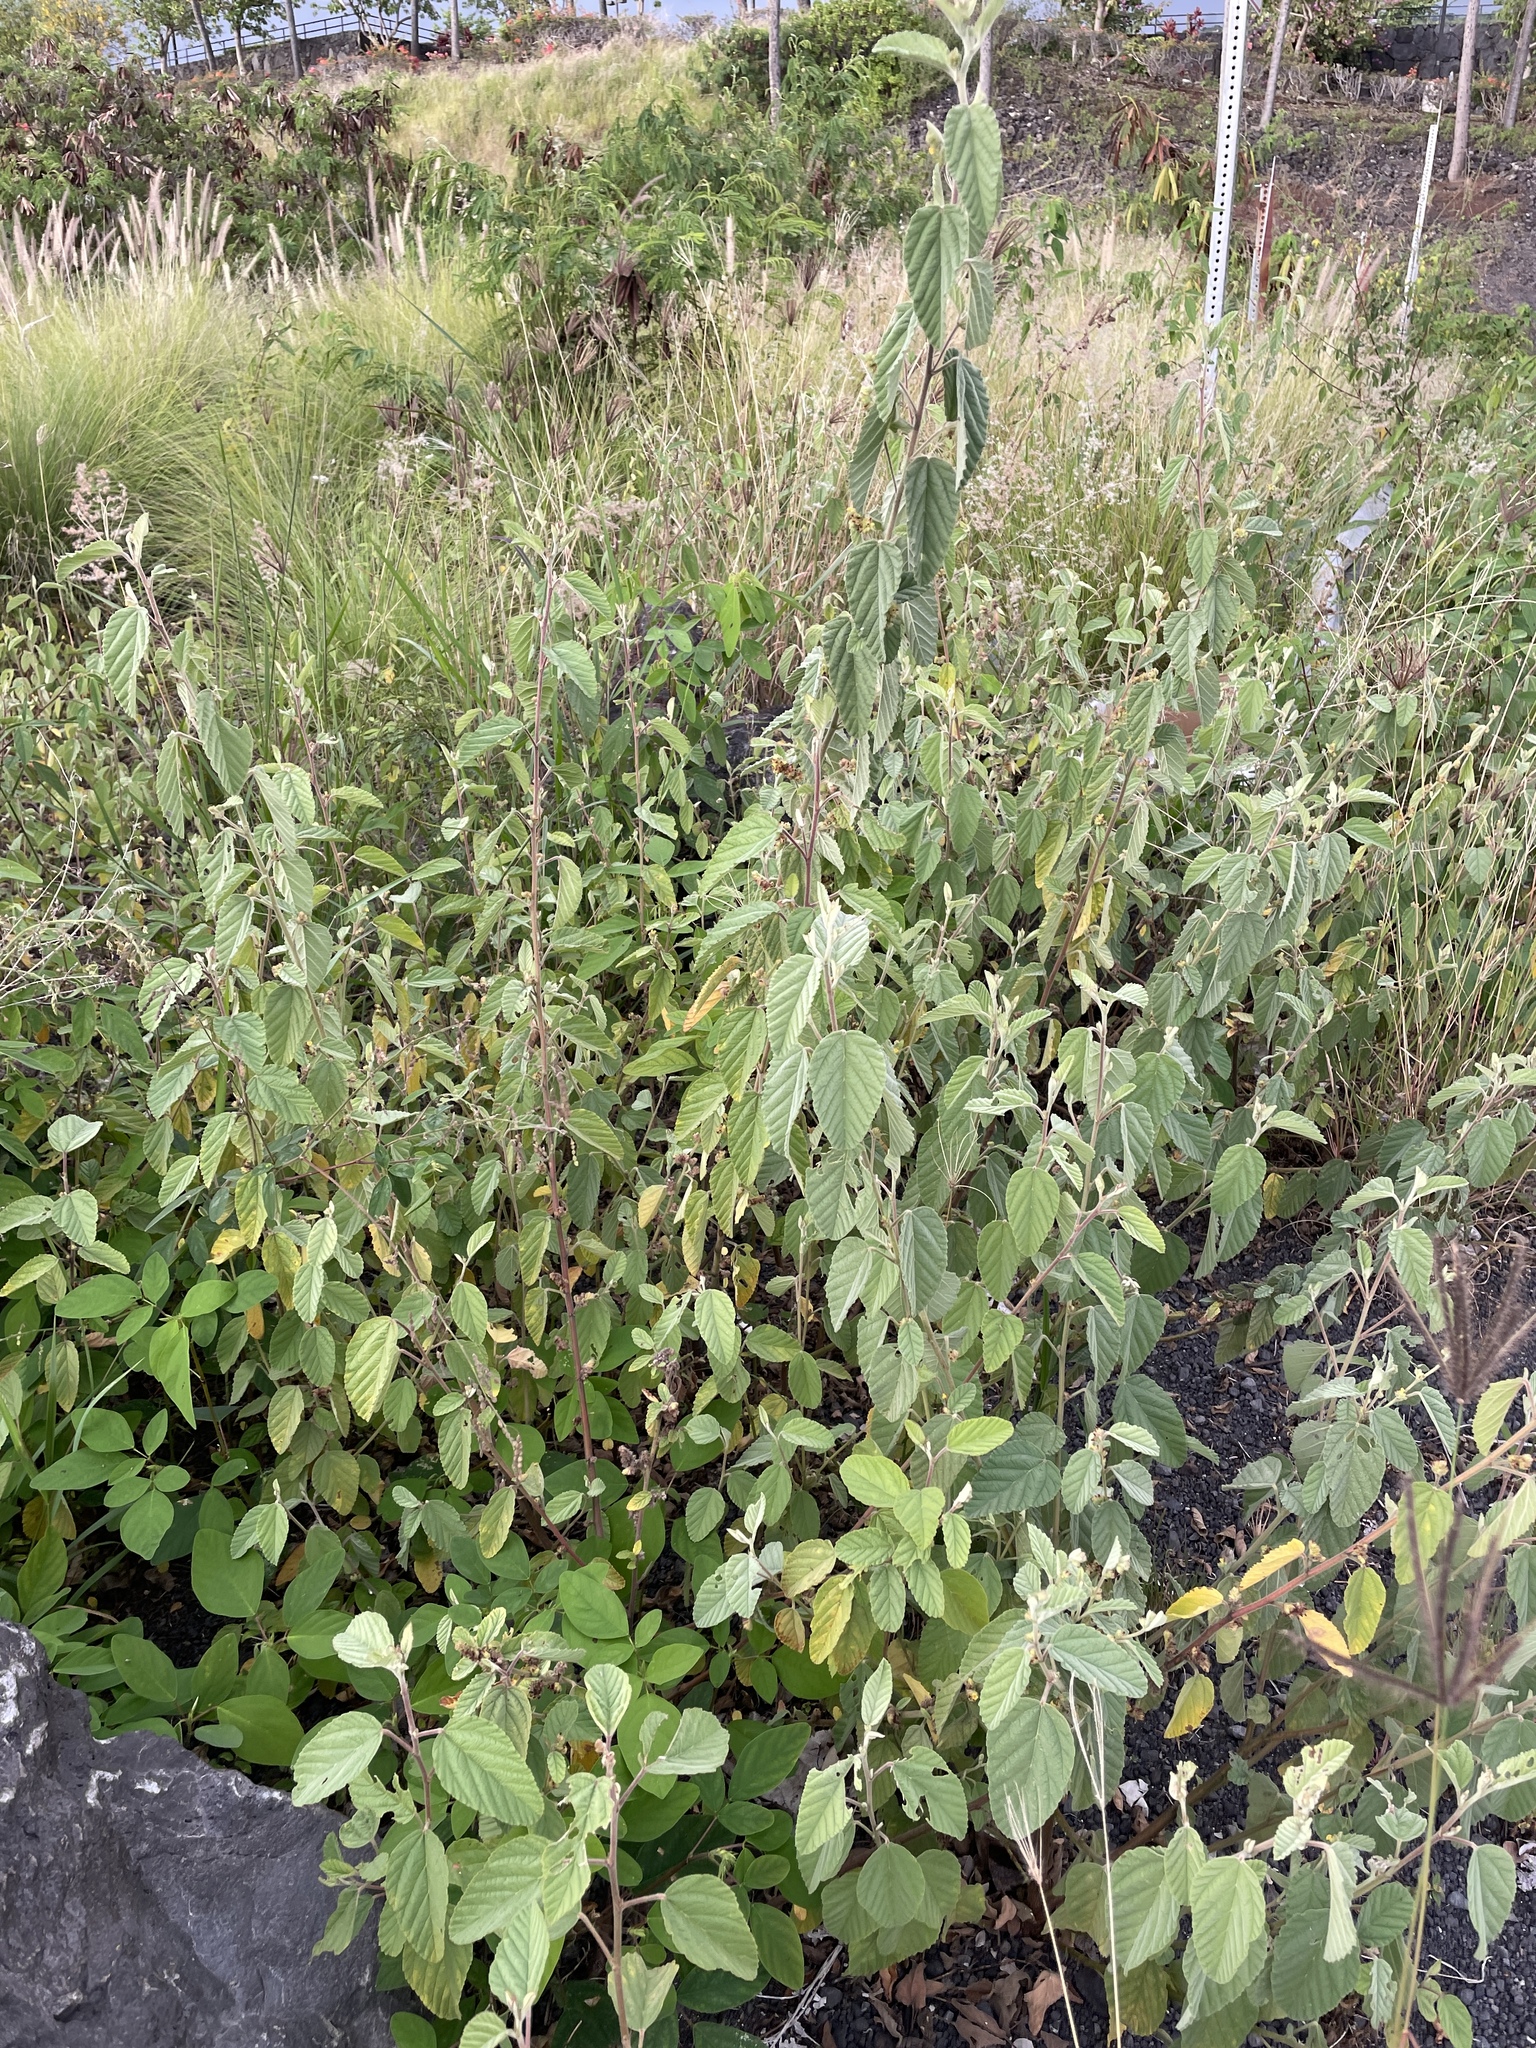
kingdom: Plantae
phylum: Tracheophyta
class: Magnoliopsida
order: Malvales
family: Malvaceae
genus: Waltheria
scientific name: Waltheria indica
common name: Leather-coat
